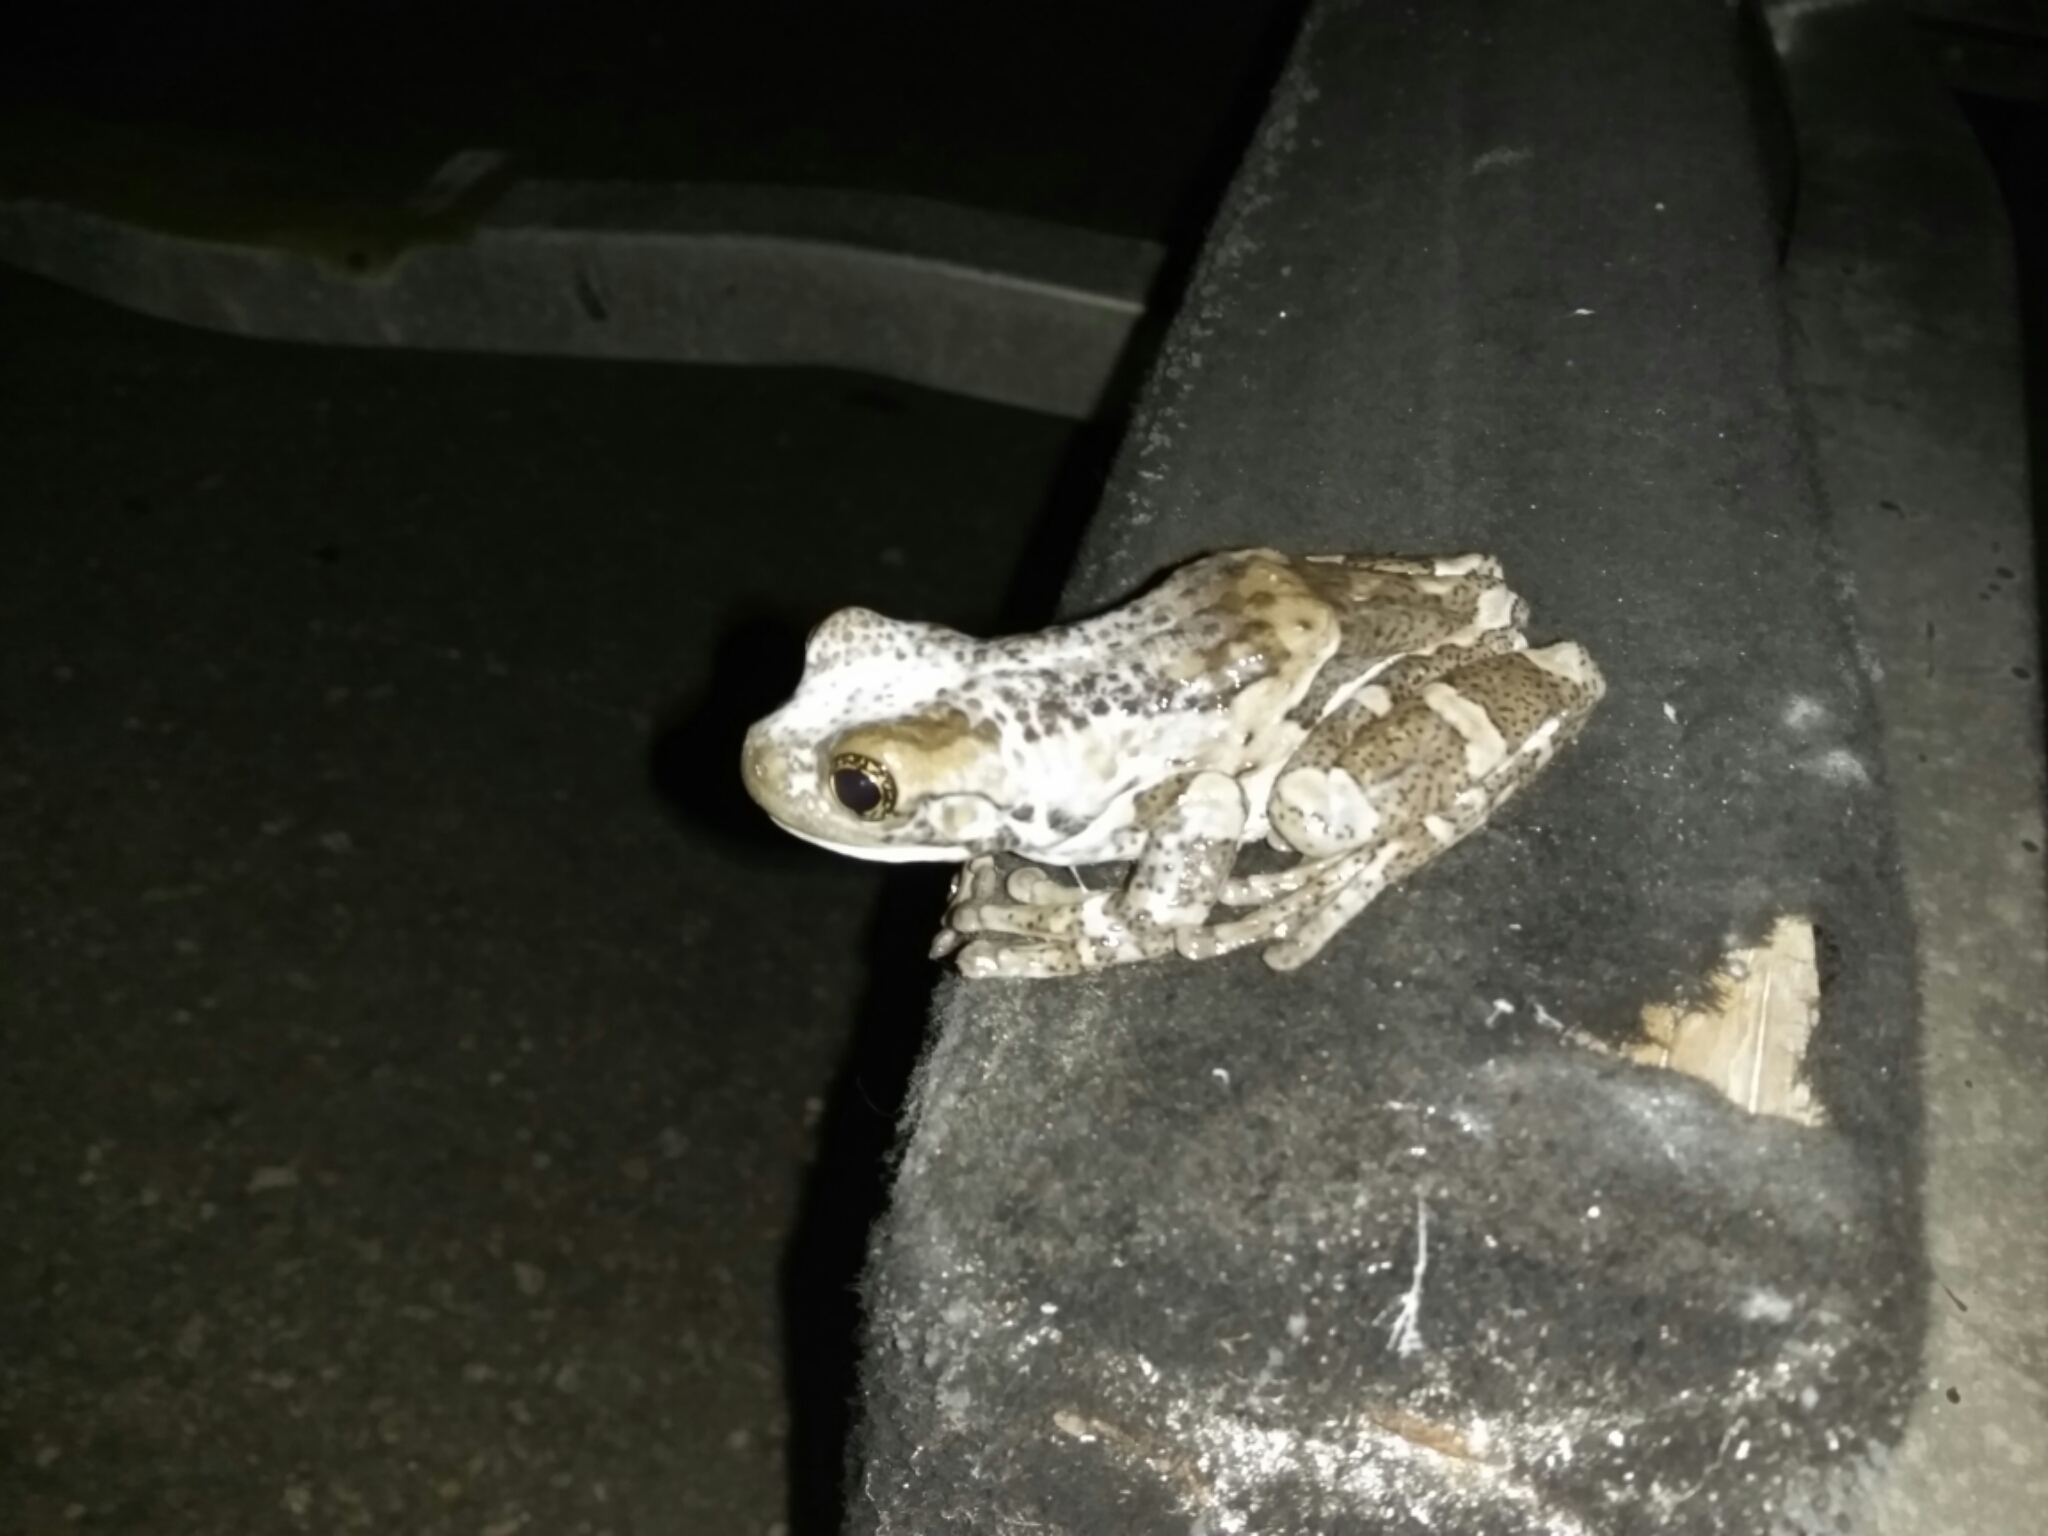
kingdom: Animalia
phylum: Chordata
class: Amphibia
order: Anura
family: Hylidae
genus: Trachycephalus
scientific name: Trachycephalus vermiculatus
